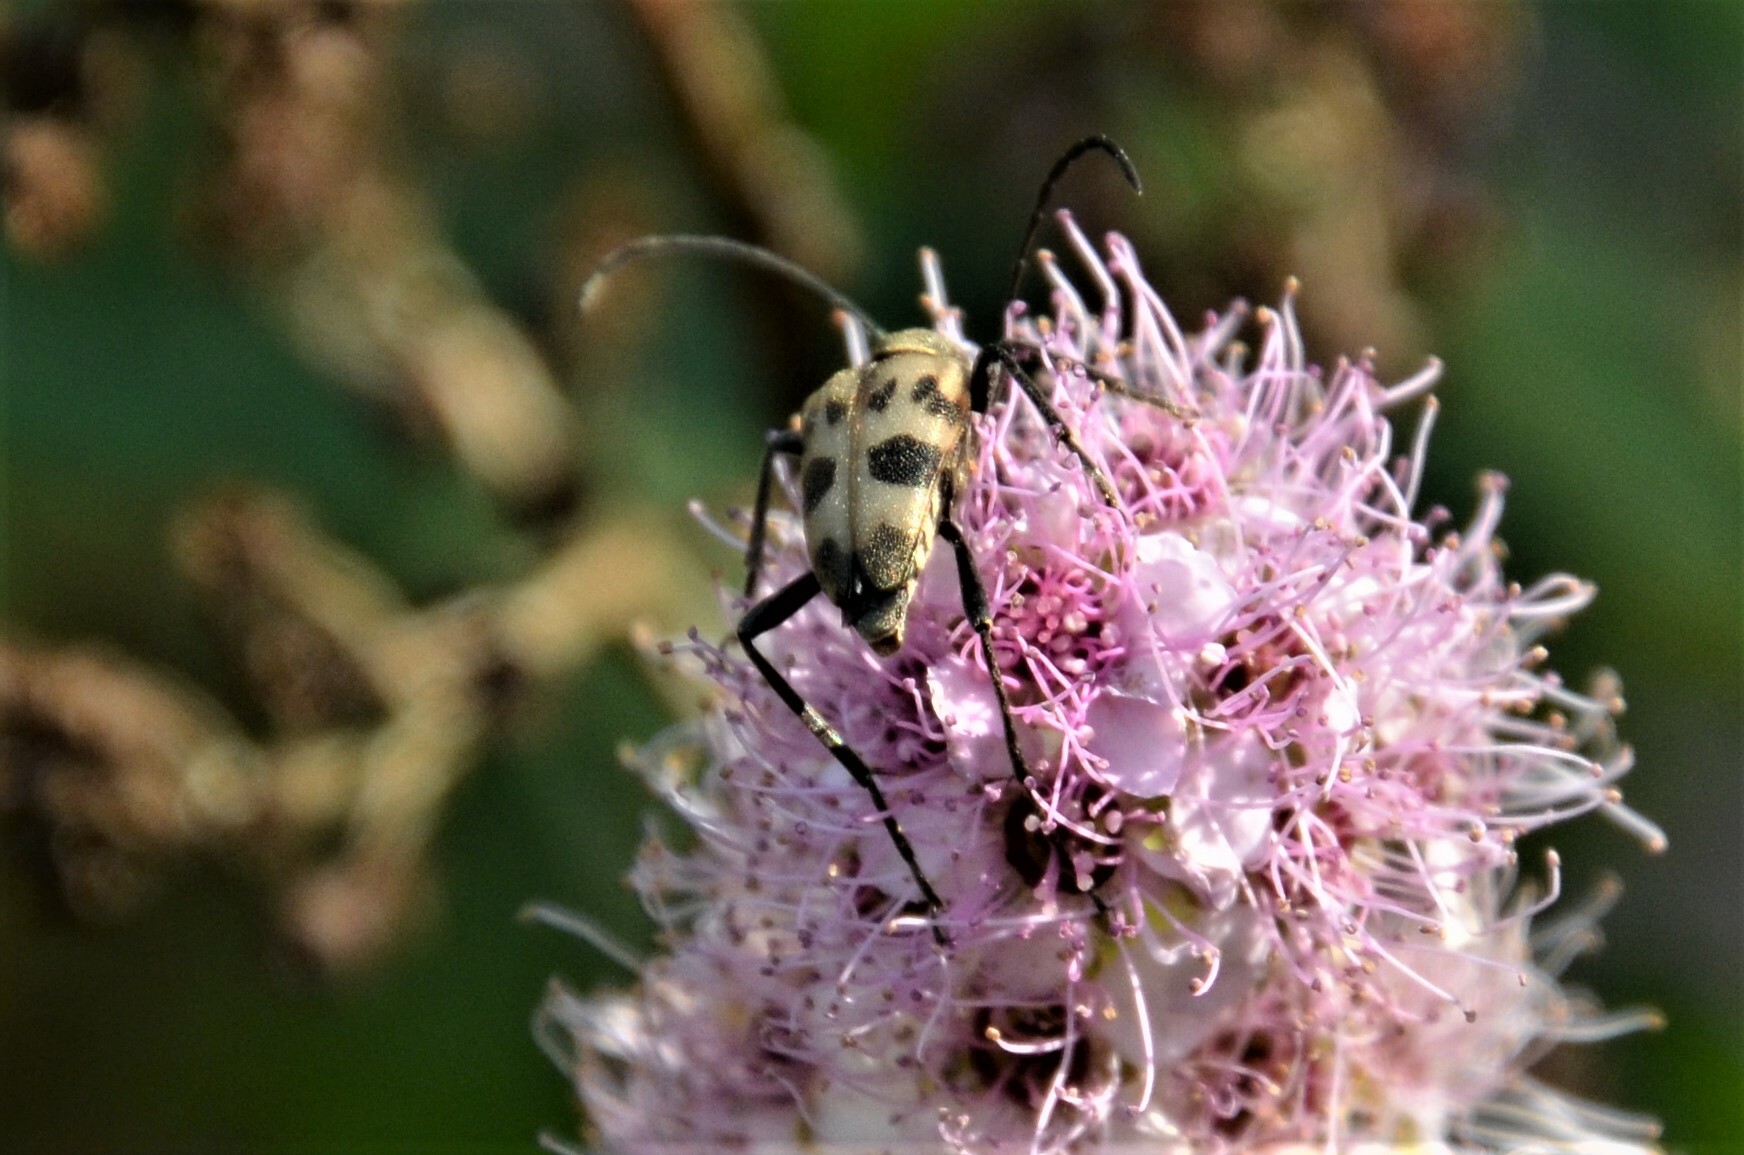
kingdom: Animalia
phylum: Arthropoda
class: Insecta
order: Coleoptera
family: Cerambycidae
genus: Pachytodes
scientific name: Pachytodes cerambyciformis
